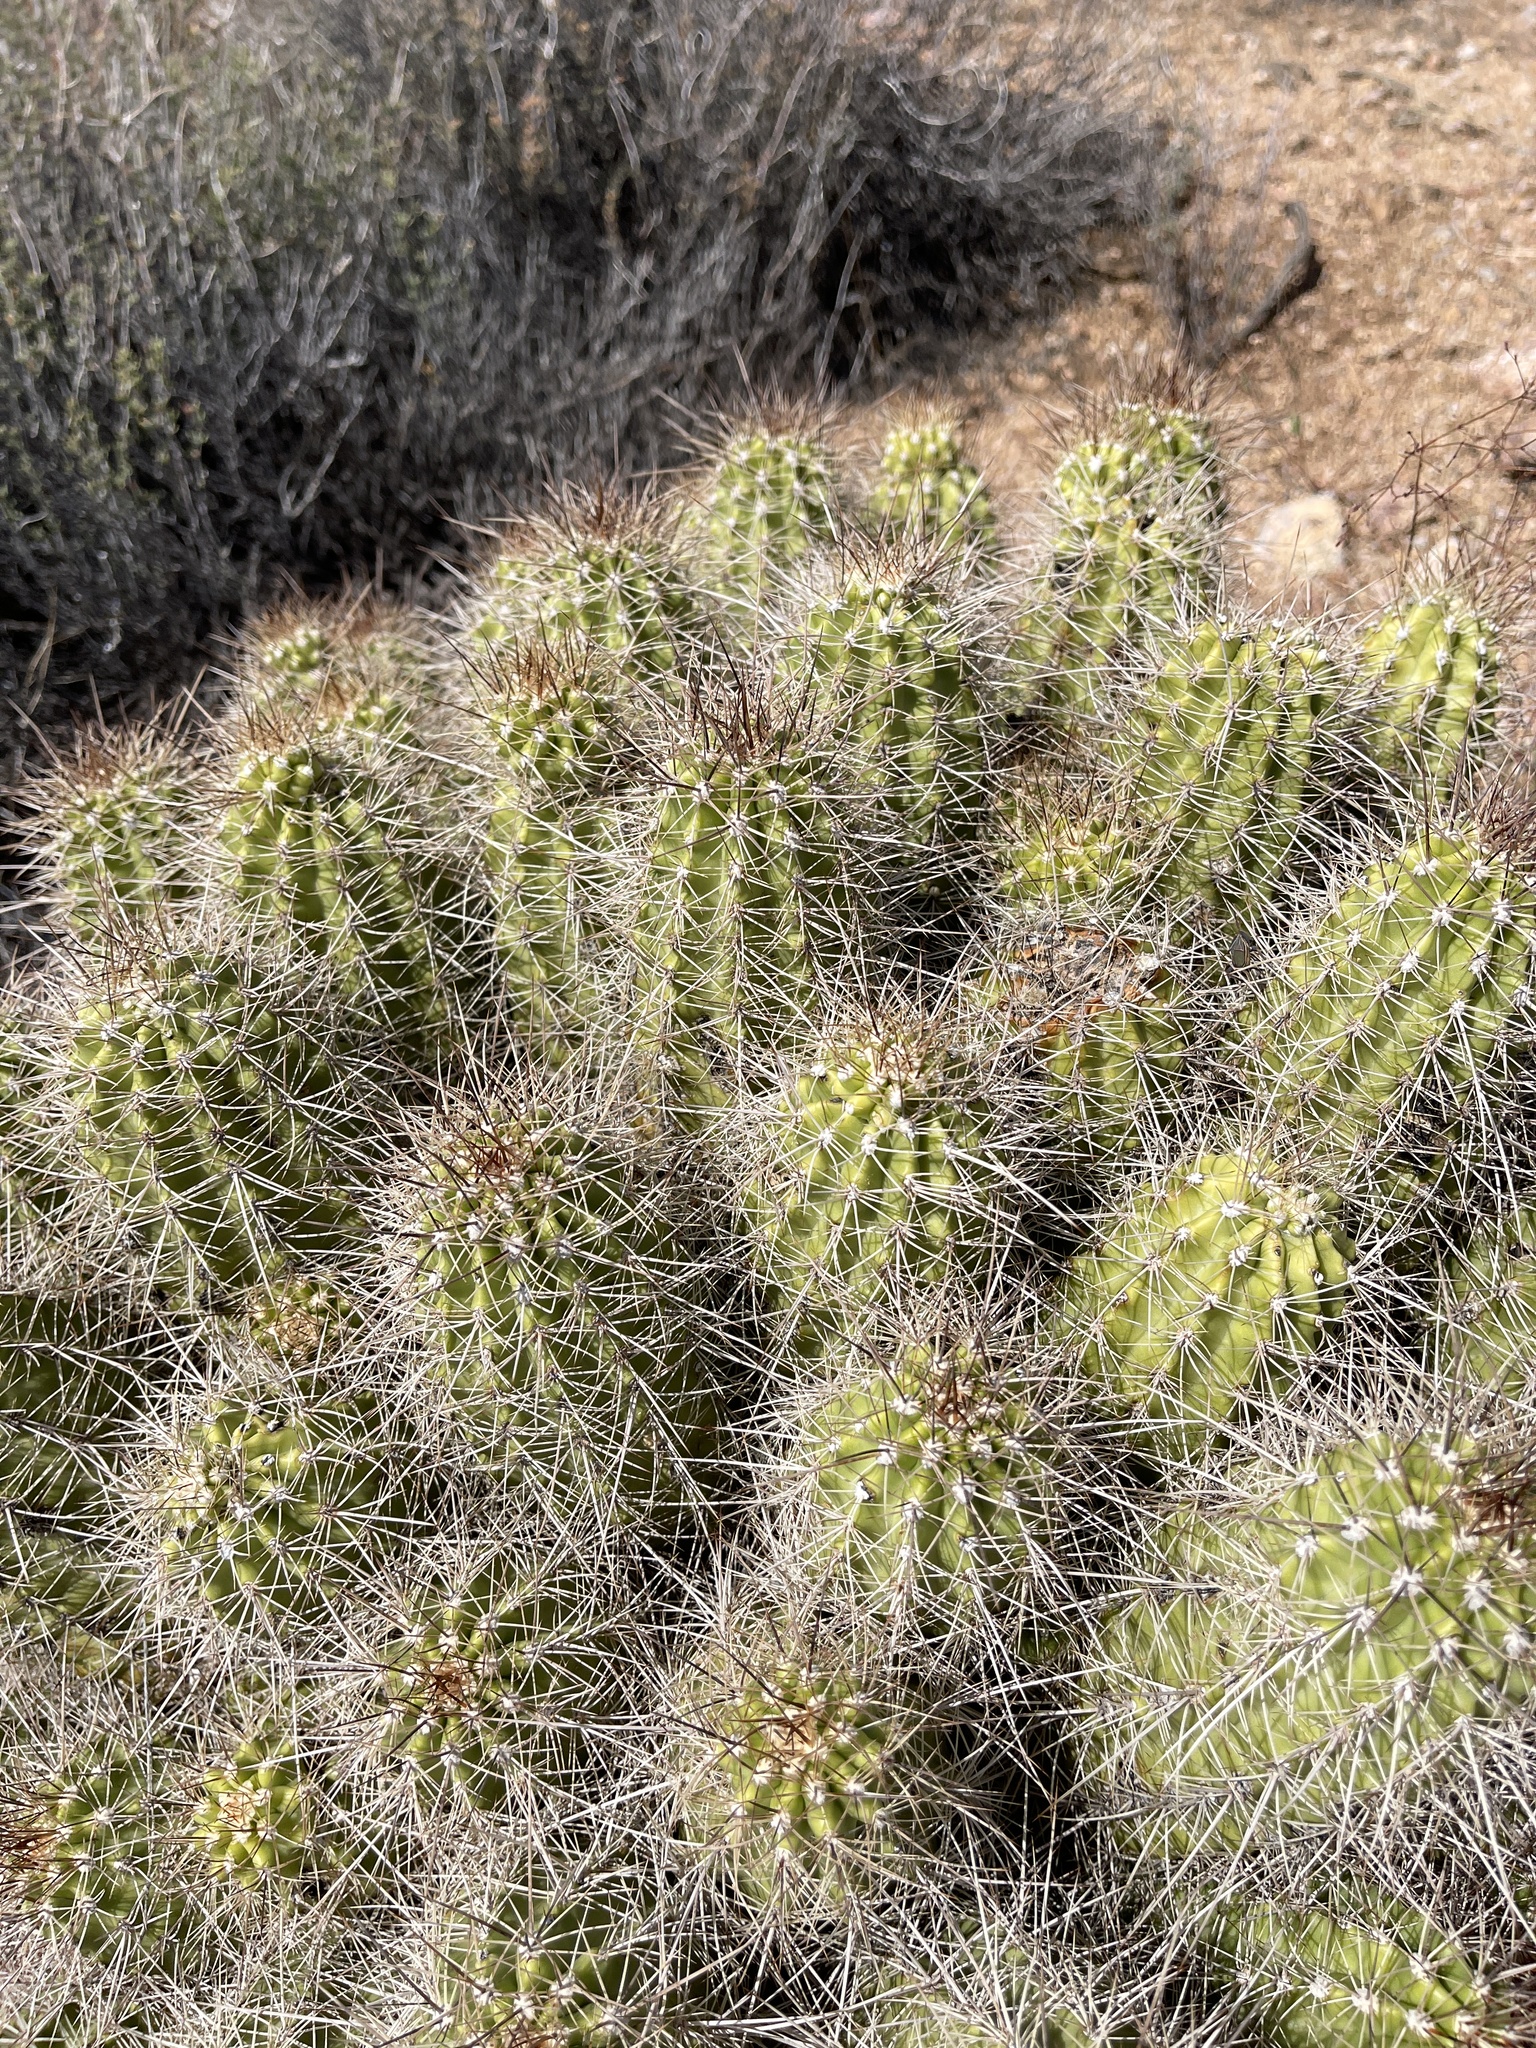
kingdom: Plantae
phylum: Tracheophyta
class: Magnoliopsida
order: Caryophyllales
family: Cactaceae
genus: Echinocereus
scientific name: Echinocereus bakeri
